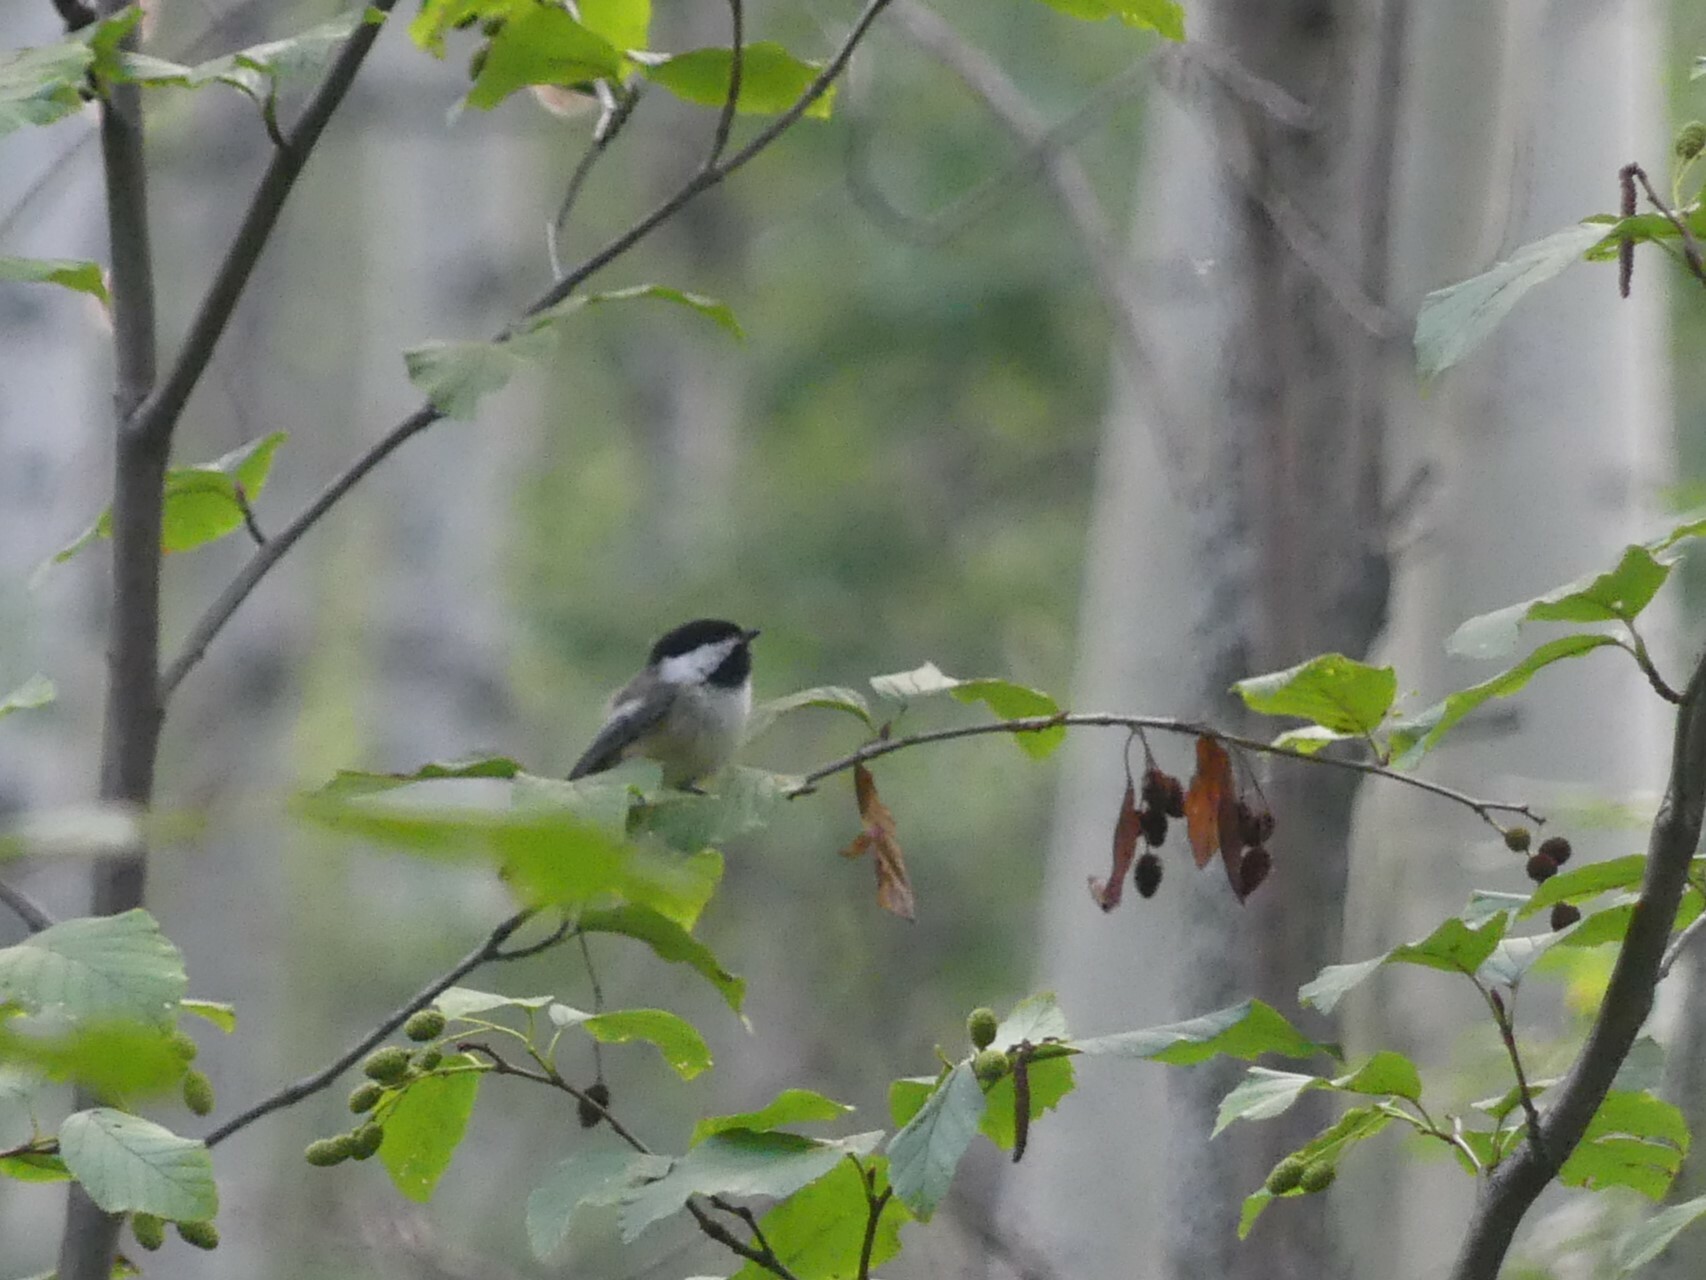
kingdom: Animalia
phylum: Chordata
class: Aves
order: Passeriformes
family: Paridae
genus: Poecile
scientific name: Poecile atricapillus
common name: Black-capped chickadee
